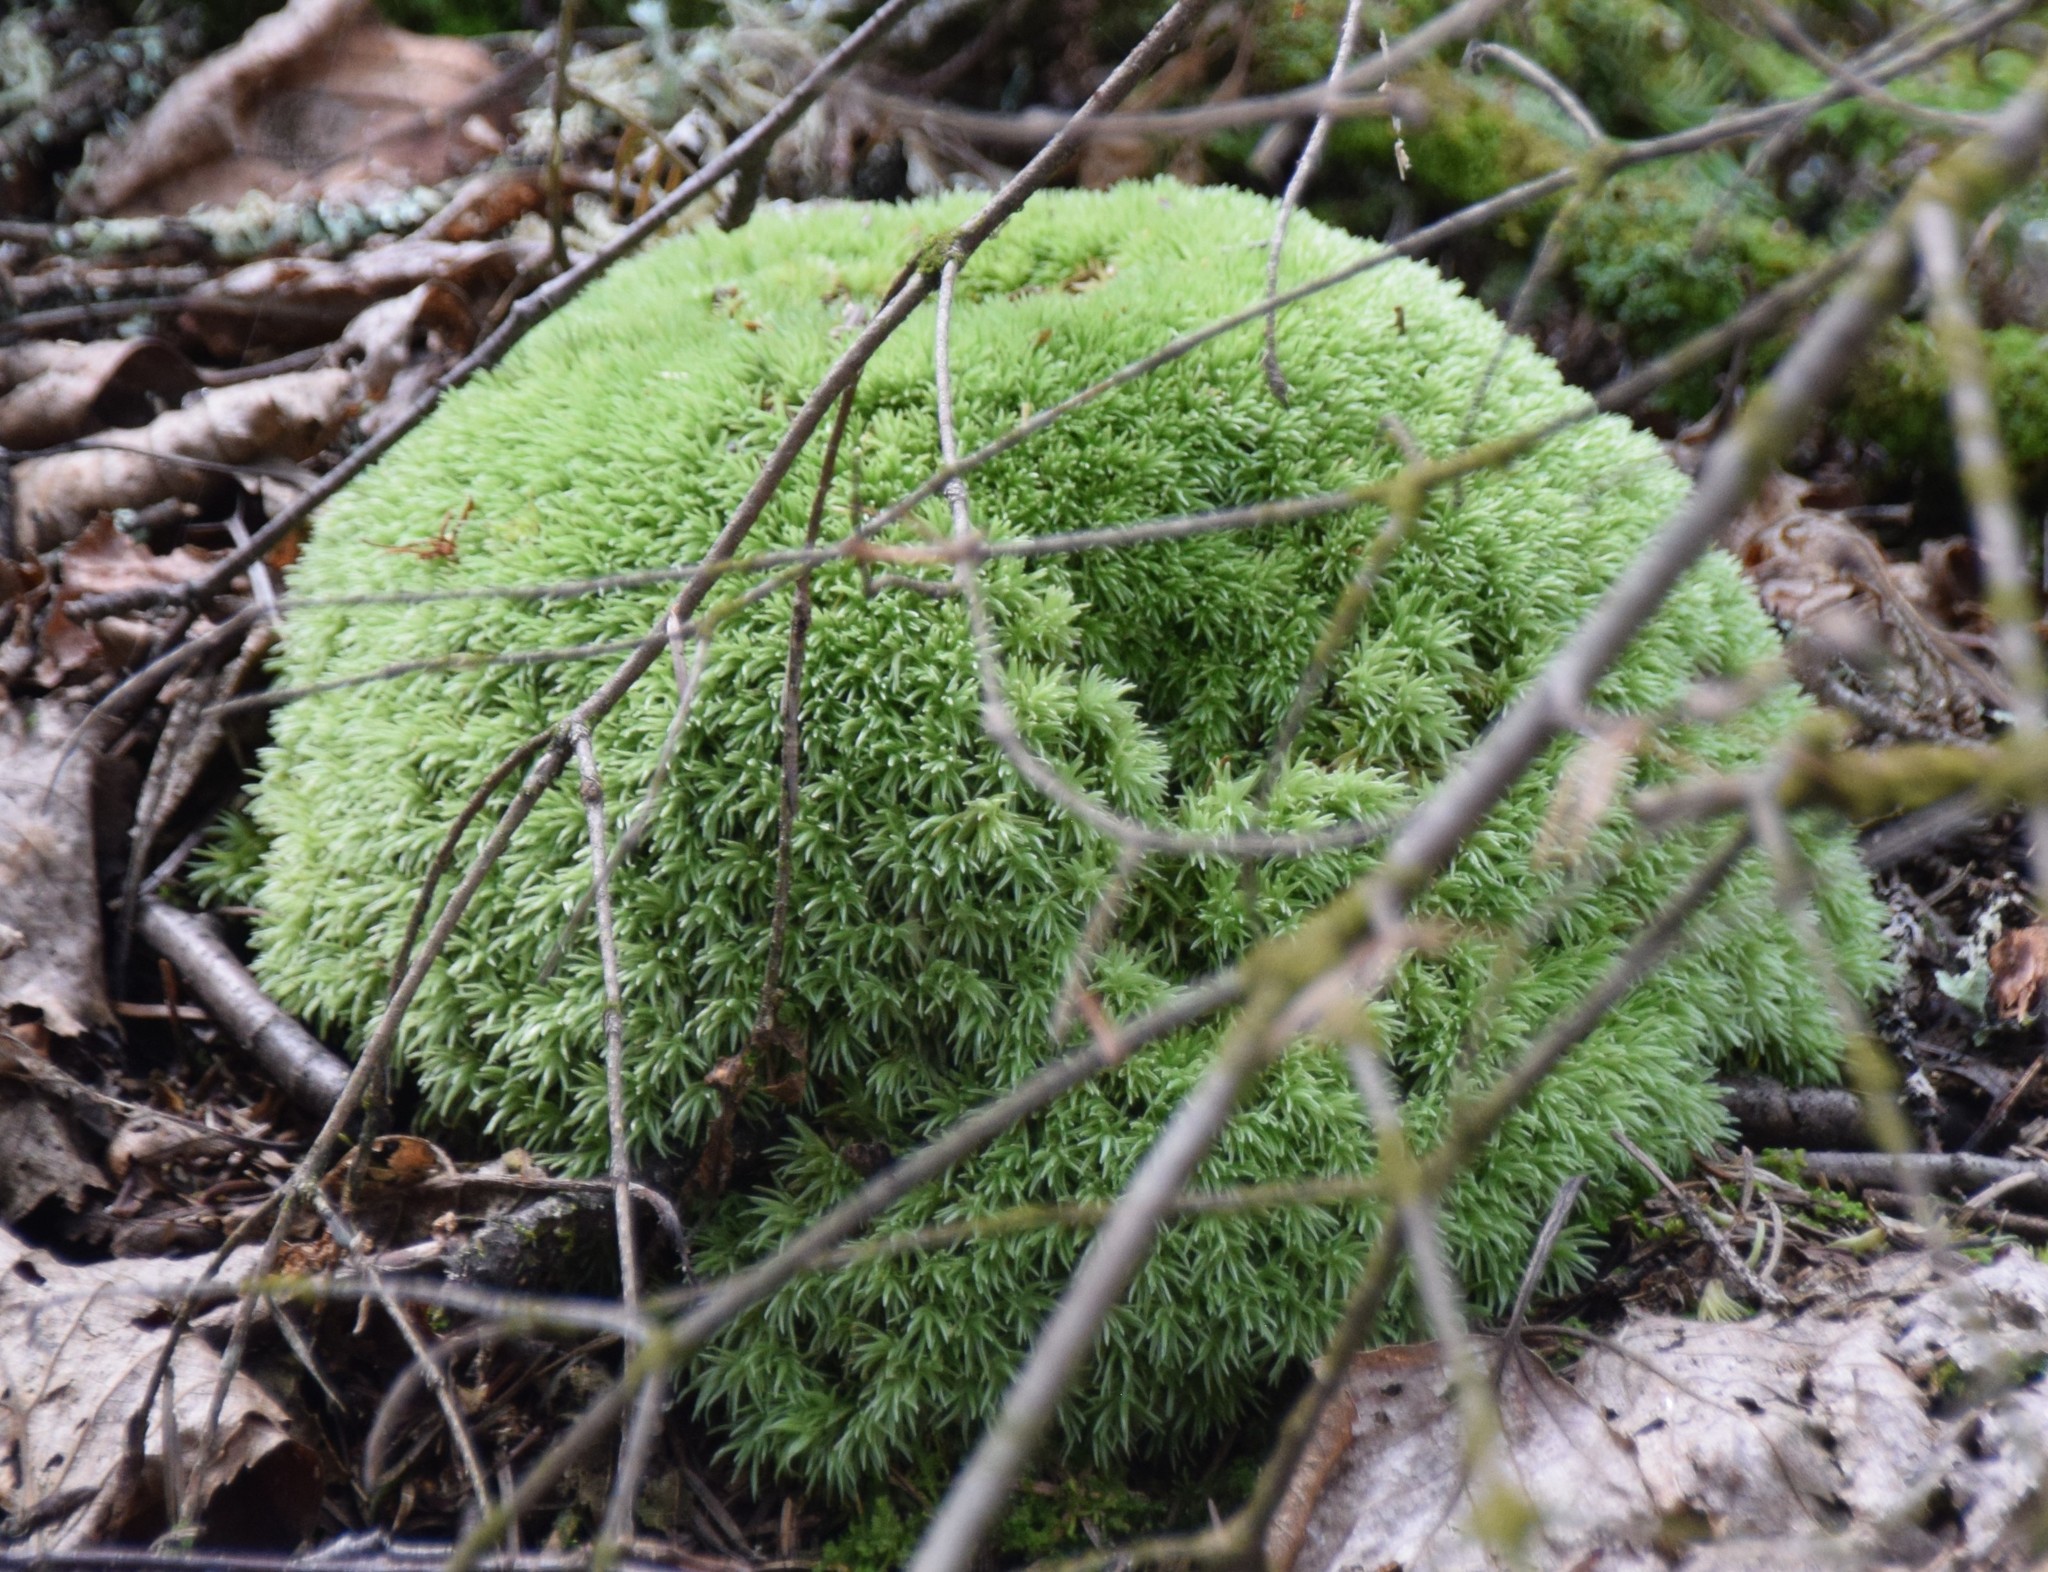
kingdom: Plantae
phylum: Bryophyta
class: Bryopsida
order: Dicranales
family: Leucobryaceae
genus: Leucobryum
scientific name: Leucobryum glaucum
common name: Large white-moss
